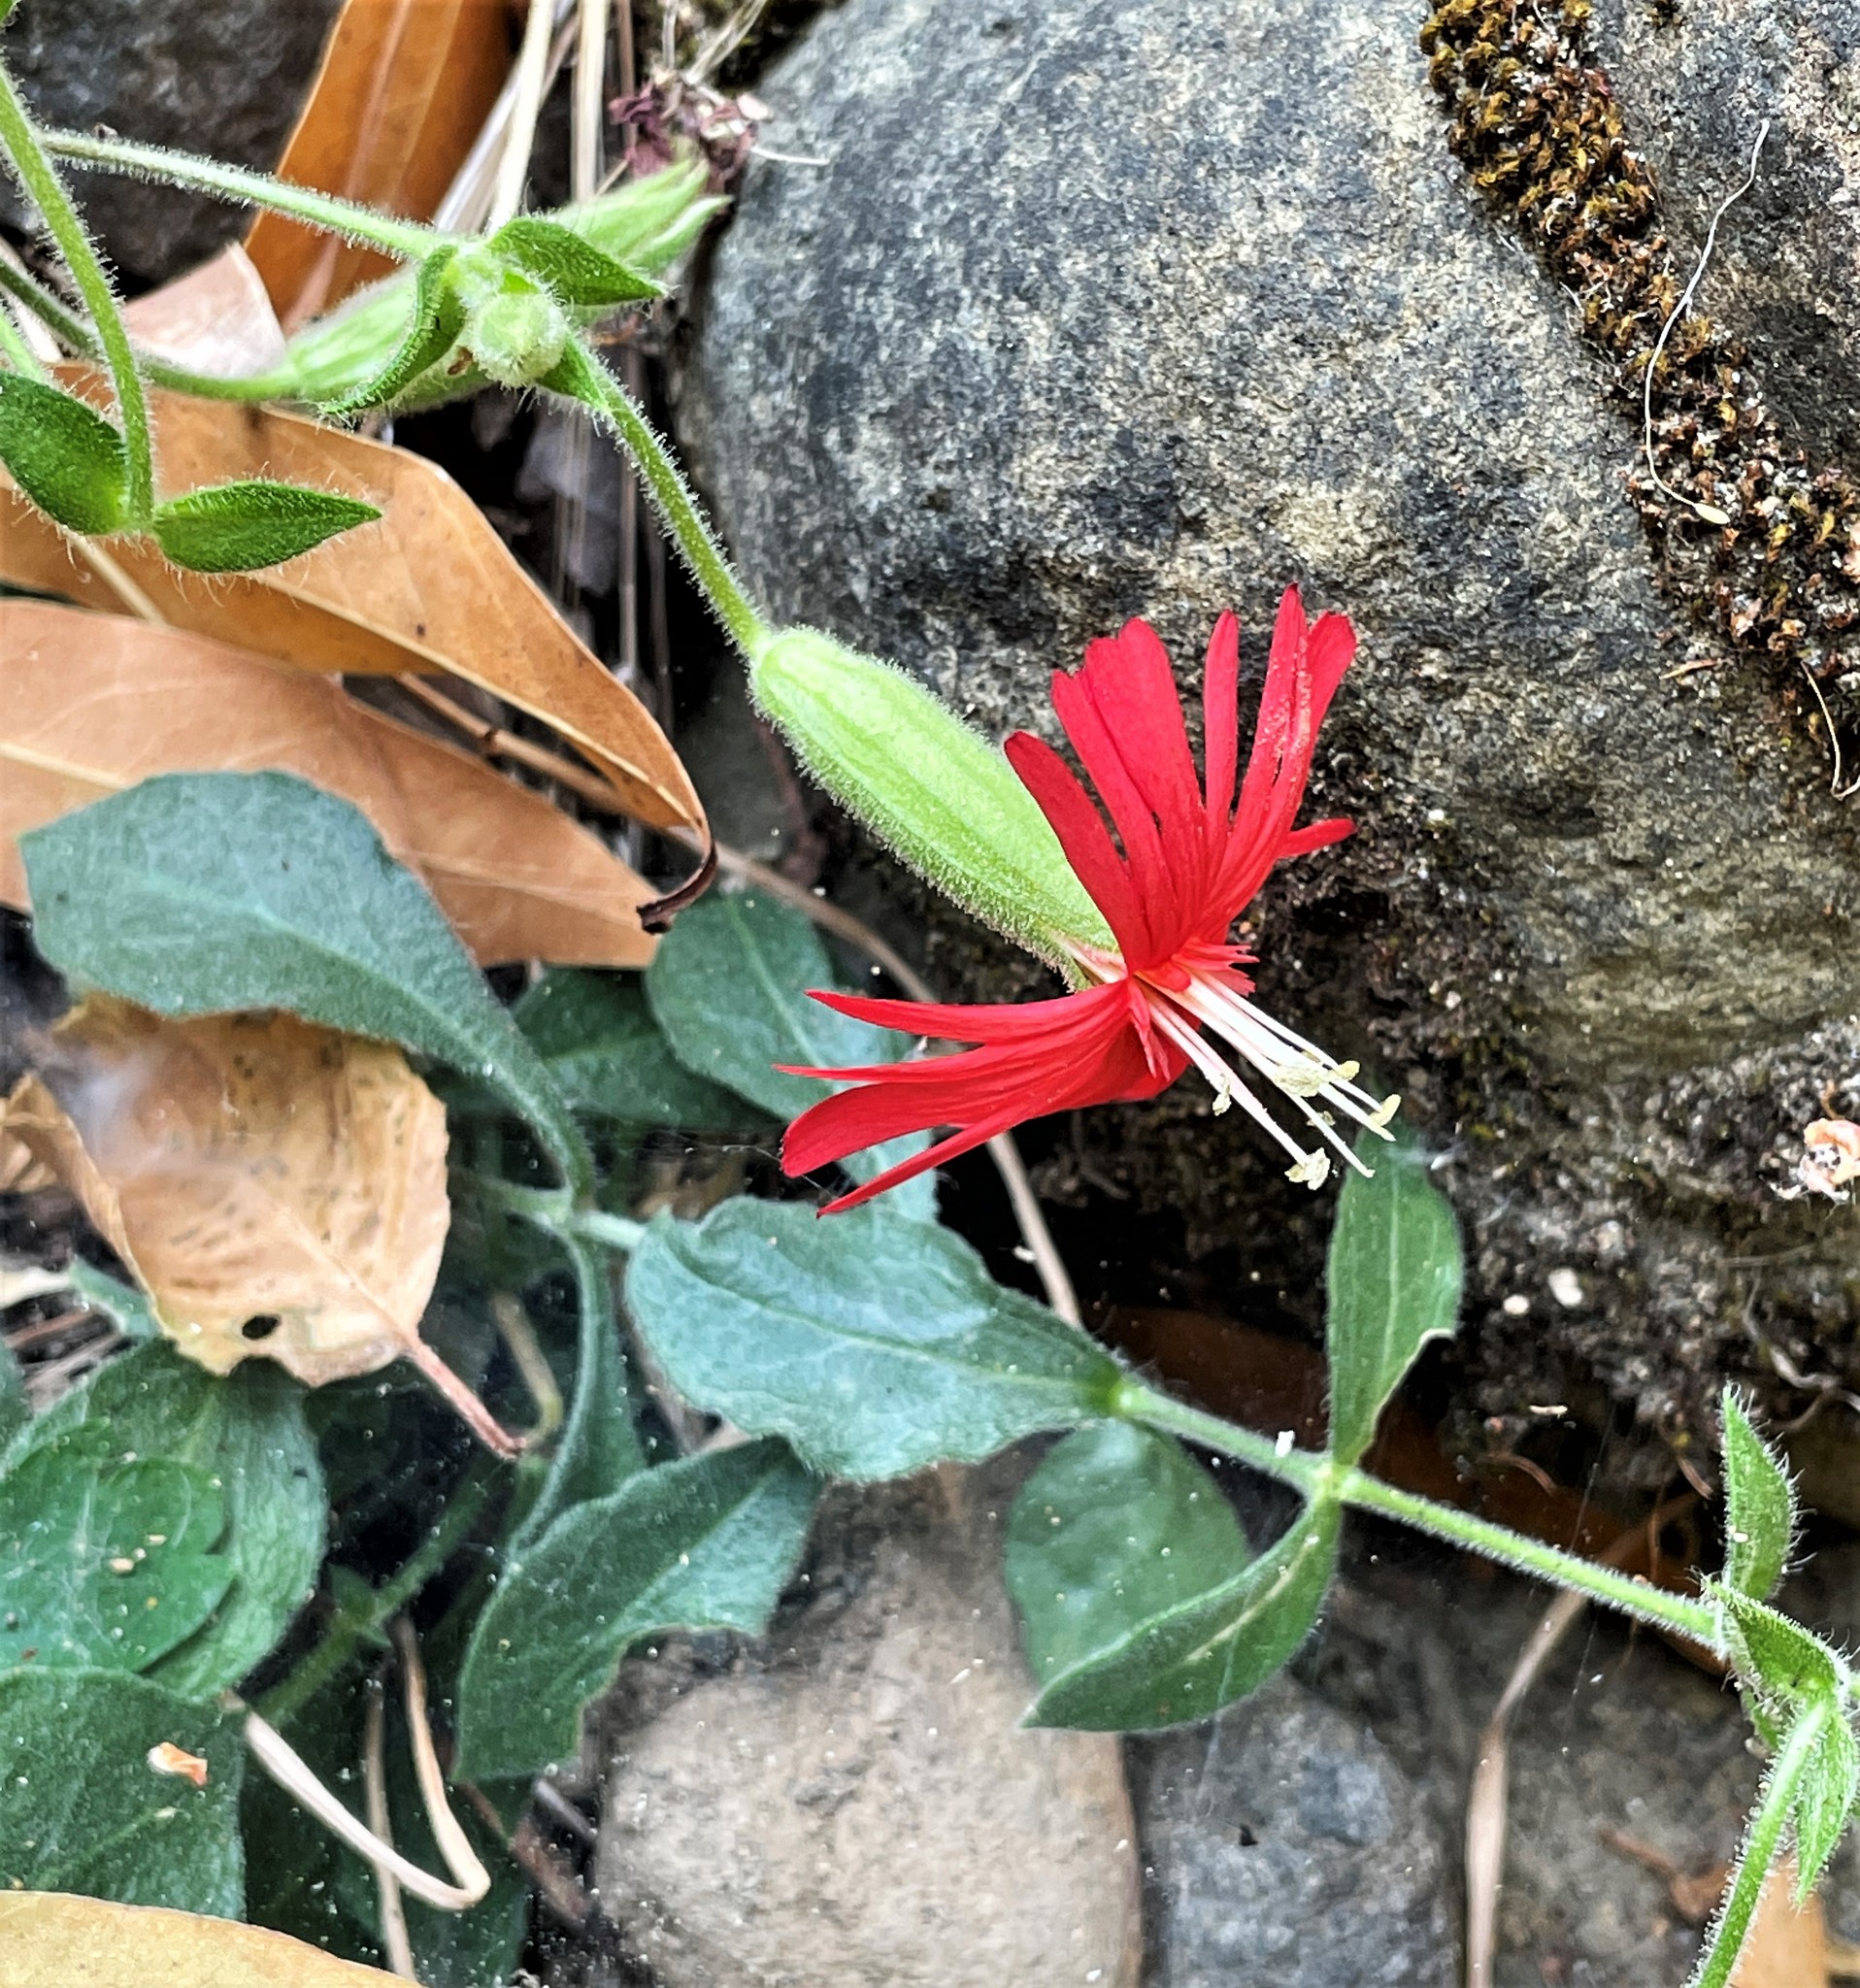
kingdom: Plantae
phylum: Tracheophyta
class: Magnoliopsida
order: Caryophyllales
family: Caryophyllaceae
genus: Silene
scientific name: Silene laciniata
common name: Indian-pink
